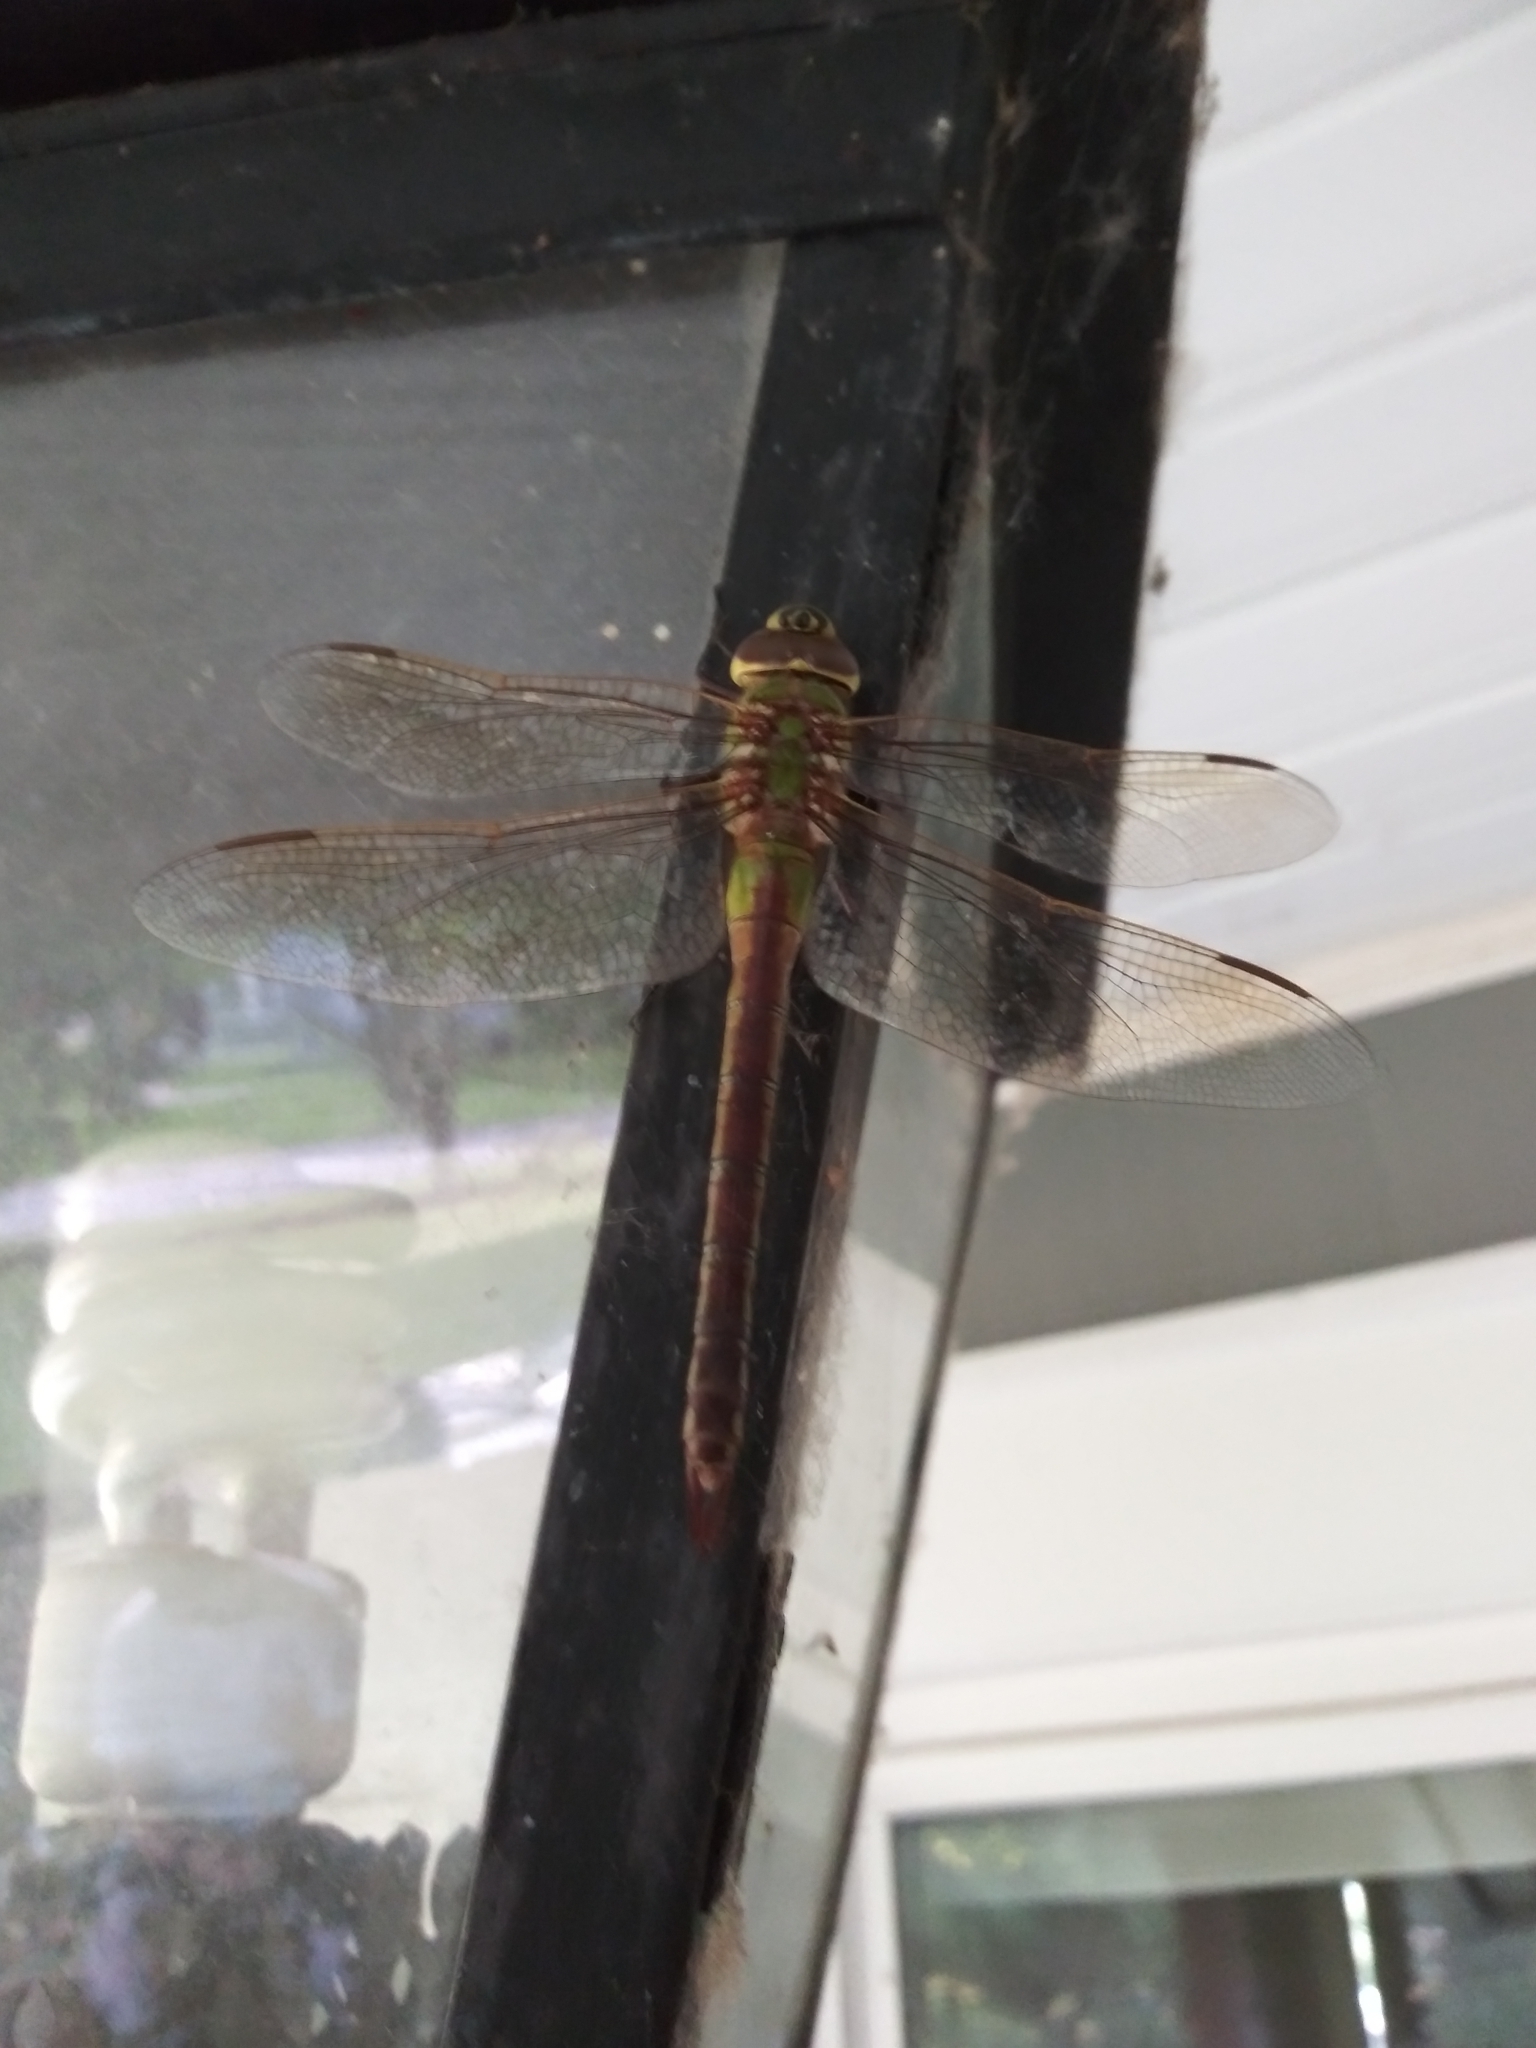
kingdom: Animalia
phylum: Arthropoda
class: Insecta
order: Odonata
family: Aeshnidae
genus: Anax
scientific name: Anax junius
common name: Common green darner
